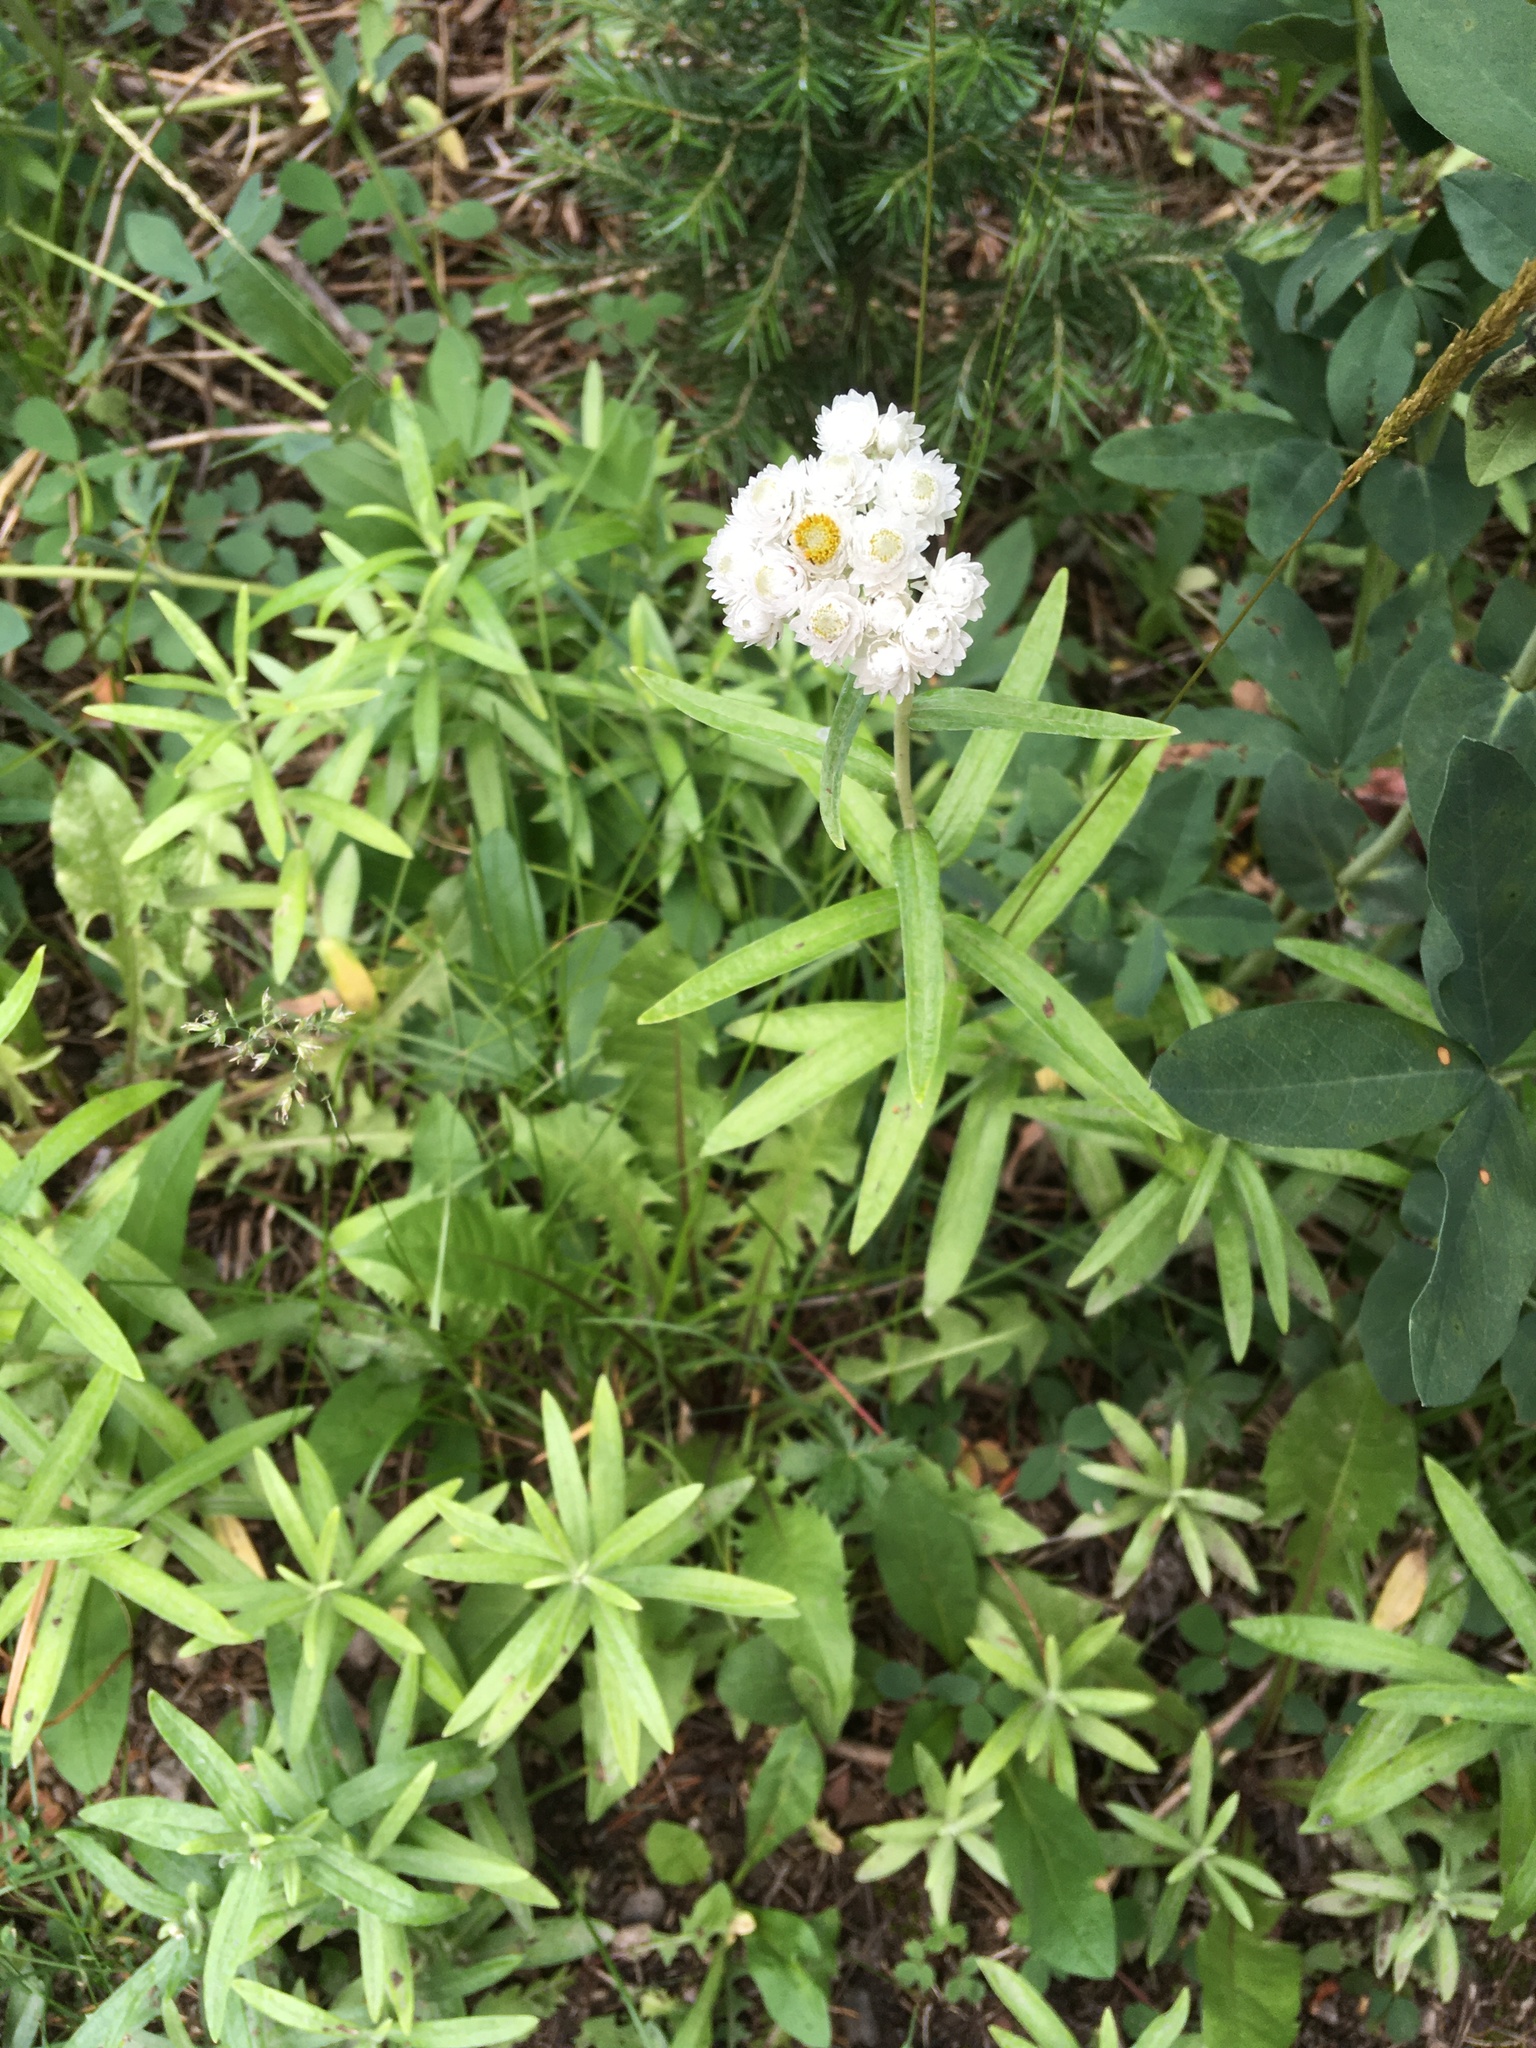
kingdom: Plantae
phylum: Tracheophyta
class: Magnoliopsida
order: Asterales
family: Asteraceae
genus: Anaphalis
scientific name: Anaphalis margaritacea
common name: Pearly everlasting
